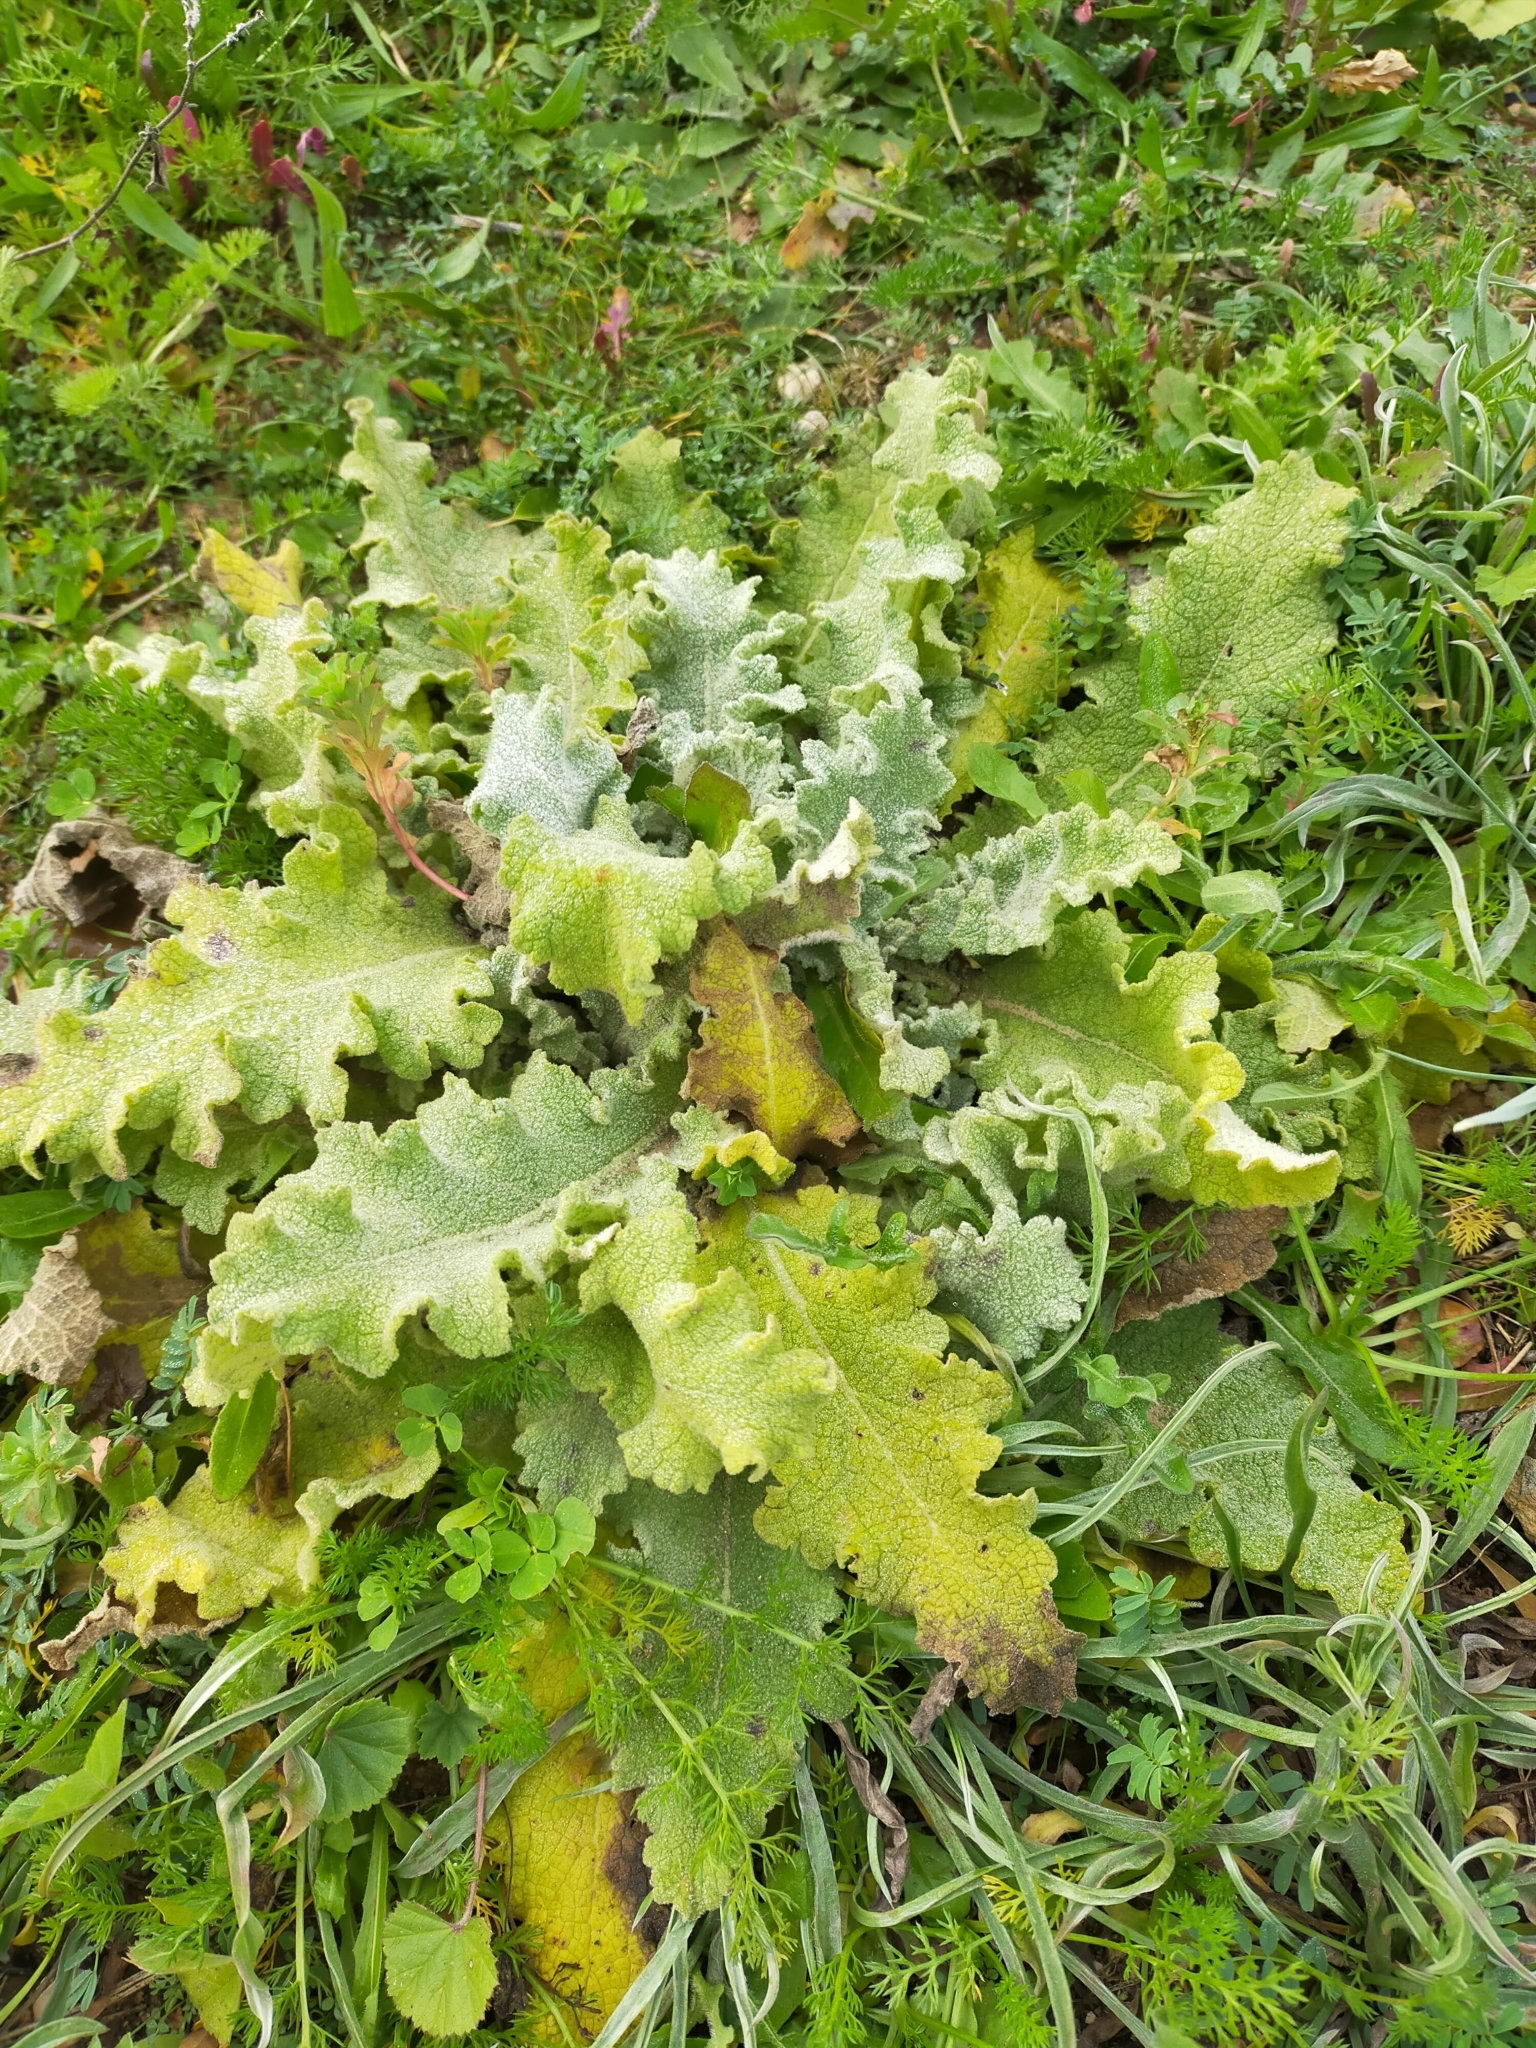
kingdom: Plantae
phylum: Tracheophyta
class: Magnoliopsida
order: Lamiales
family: Scrophulariaceae
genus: Verbascum
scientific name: Verbascum sinuatum
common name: Wavyleaf mullein
